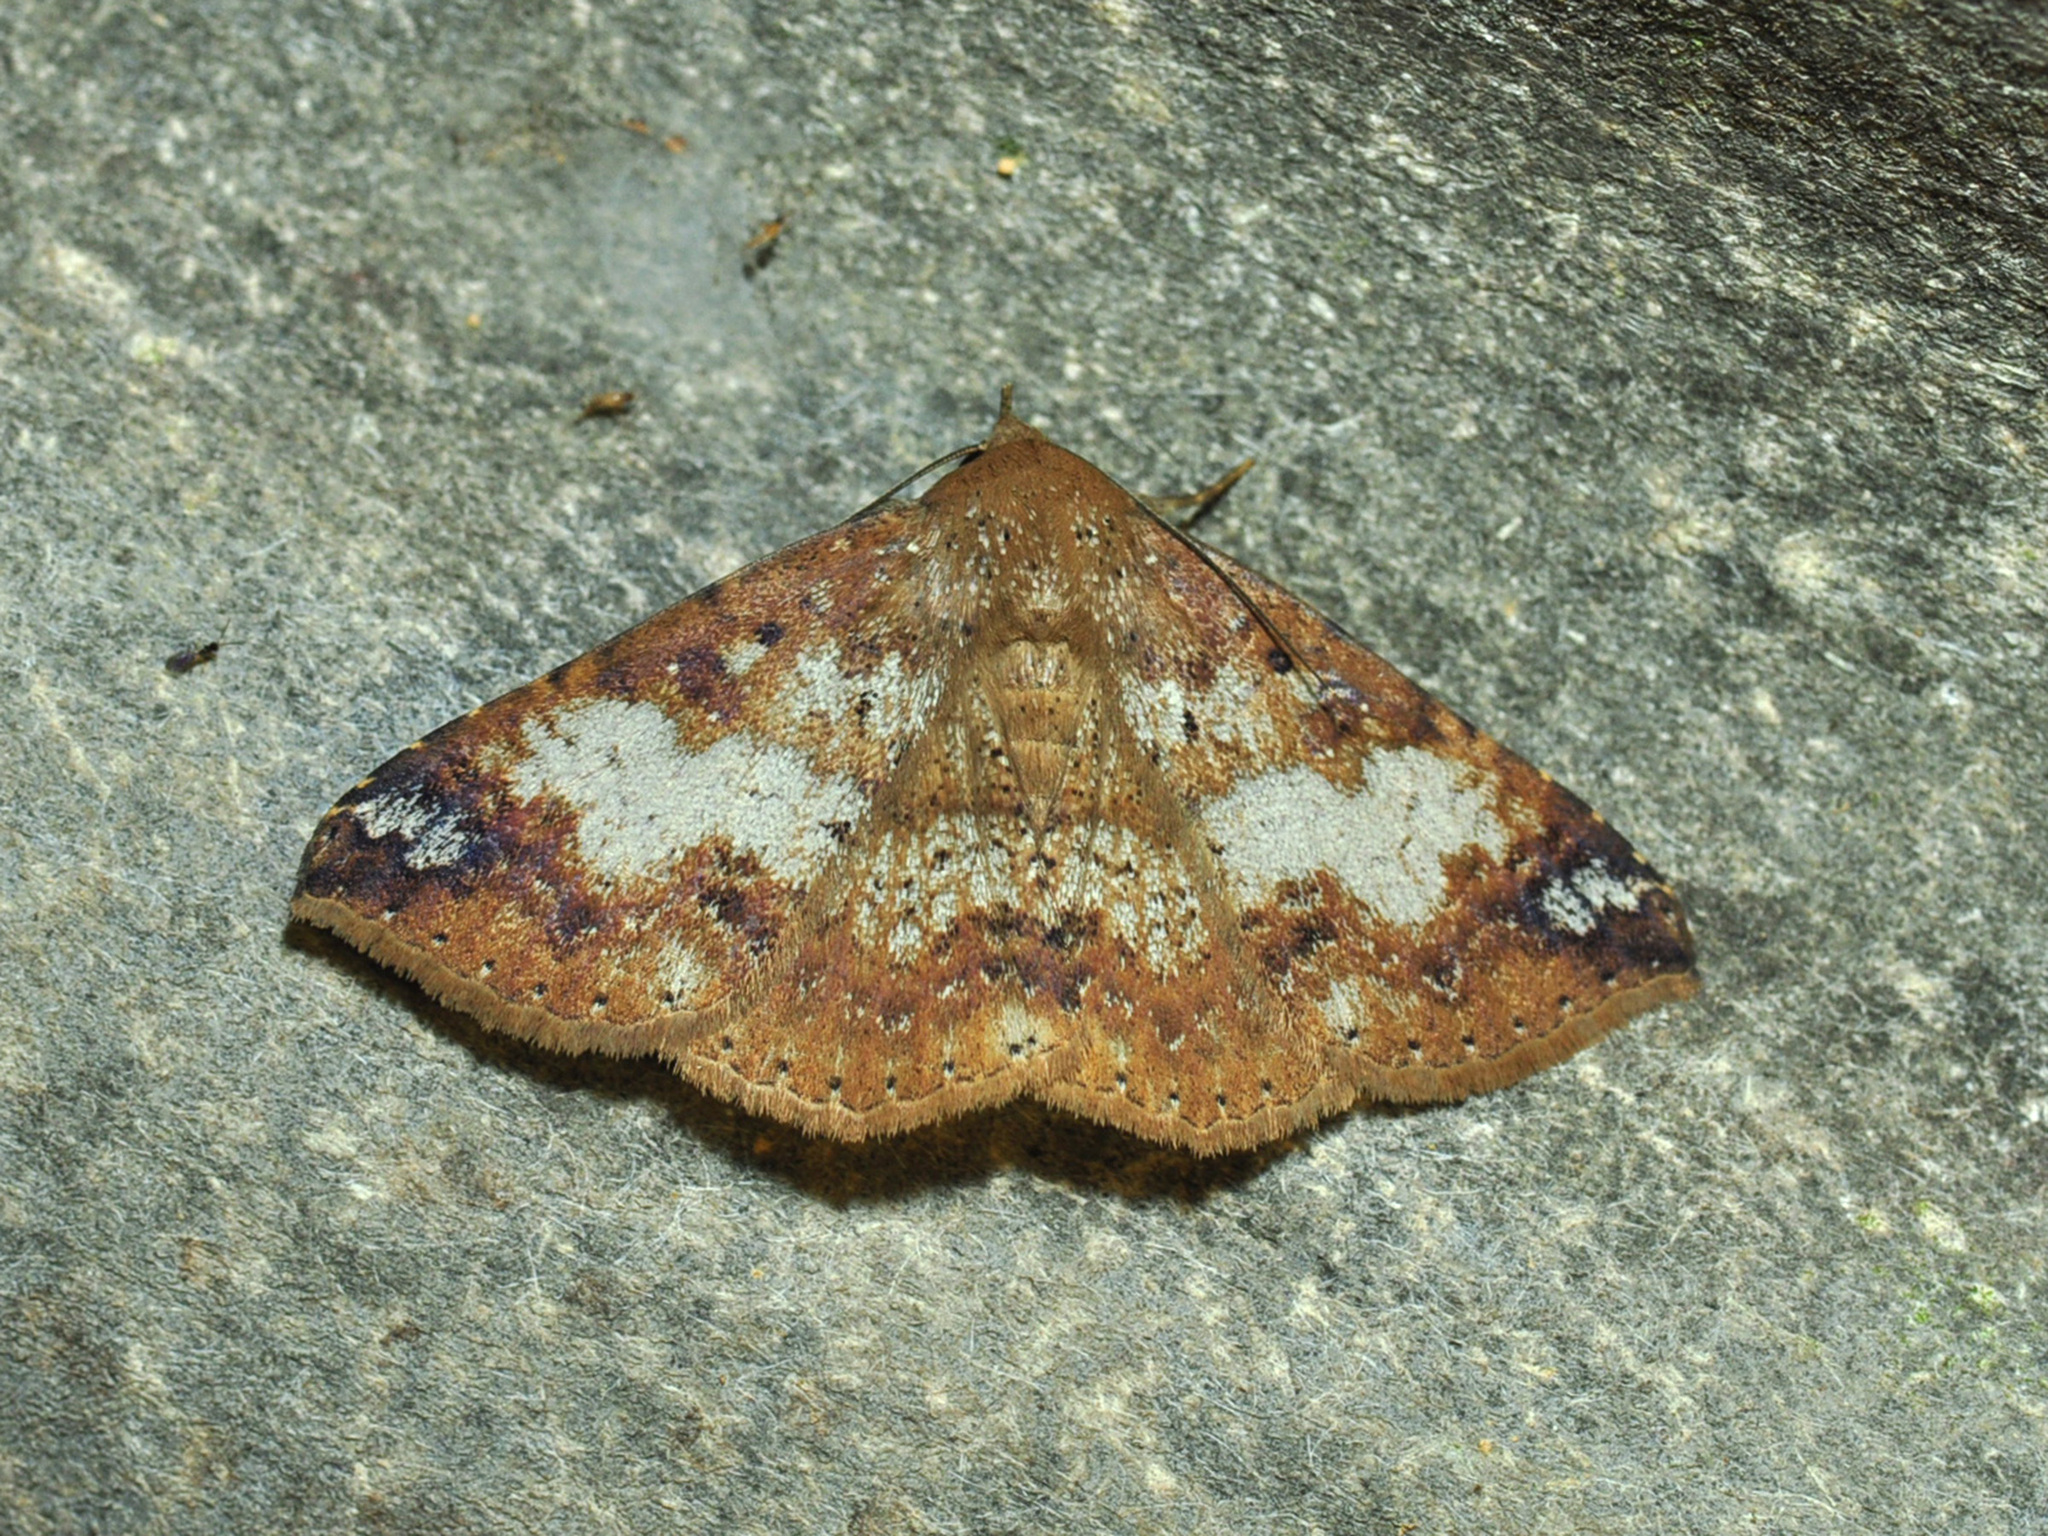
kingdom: Animalia
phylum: Arthropoda
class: Insecta
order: Lepidoptera
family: Erebidae
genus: Ericeia
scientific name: Ericeia amanda
